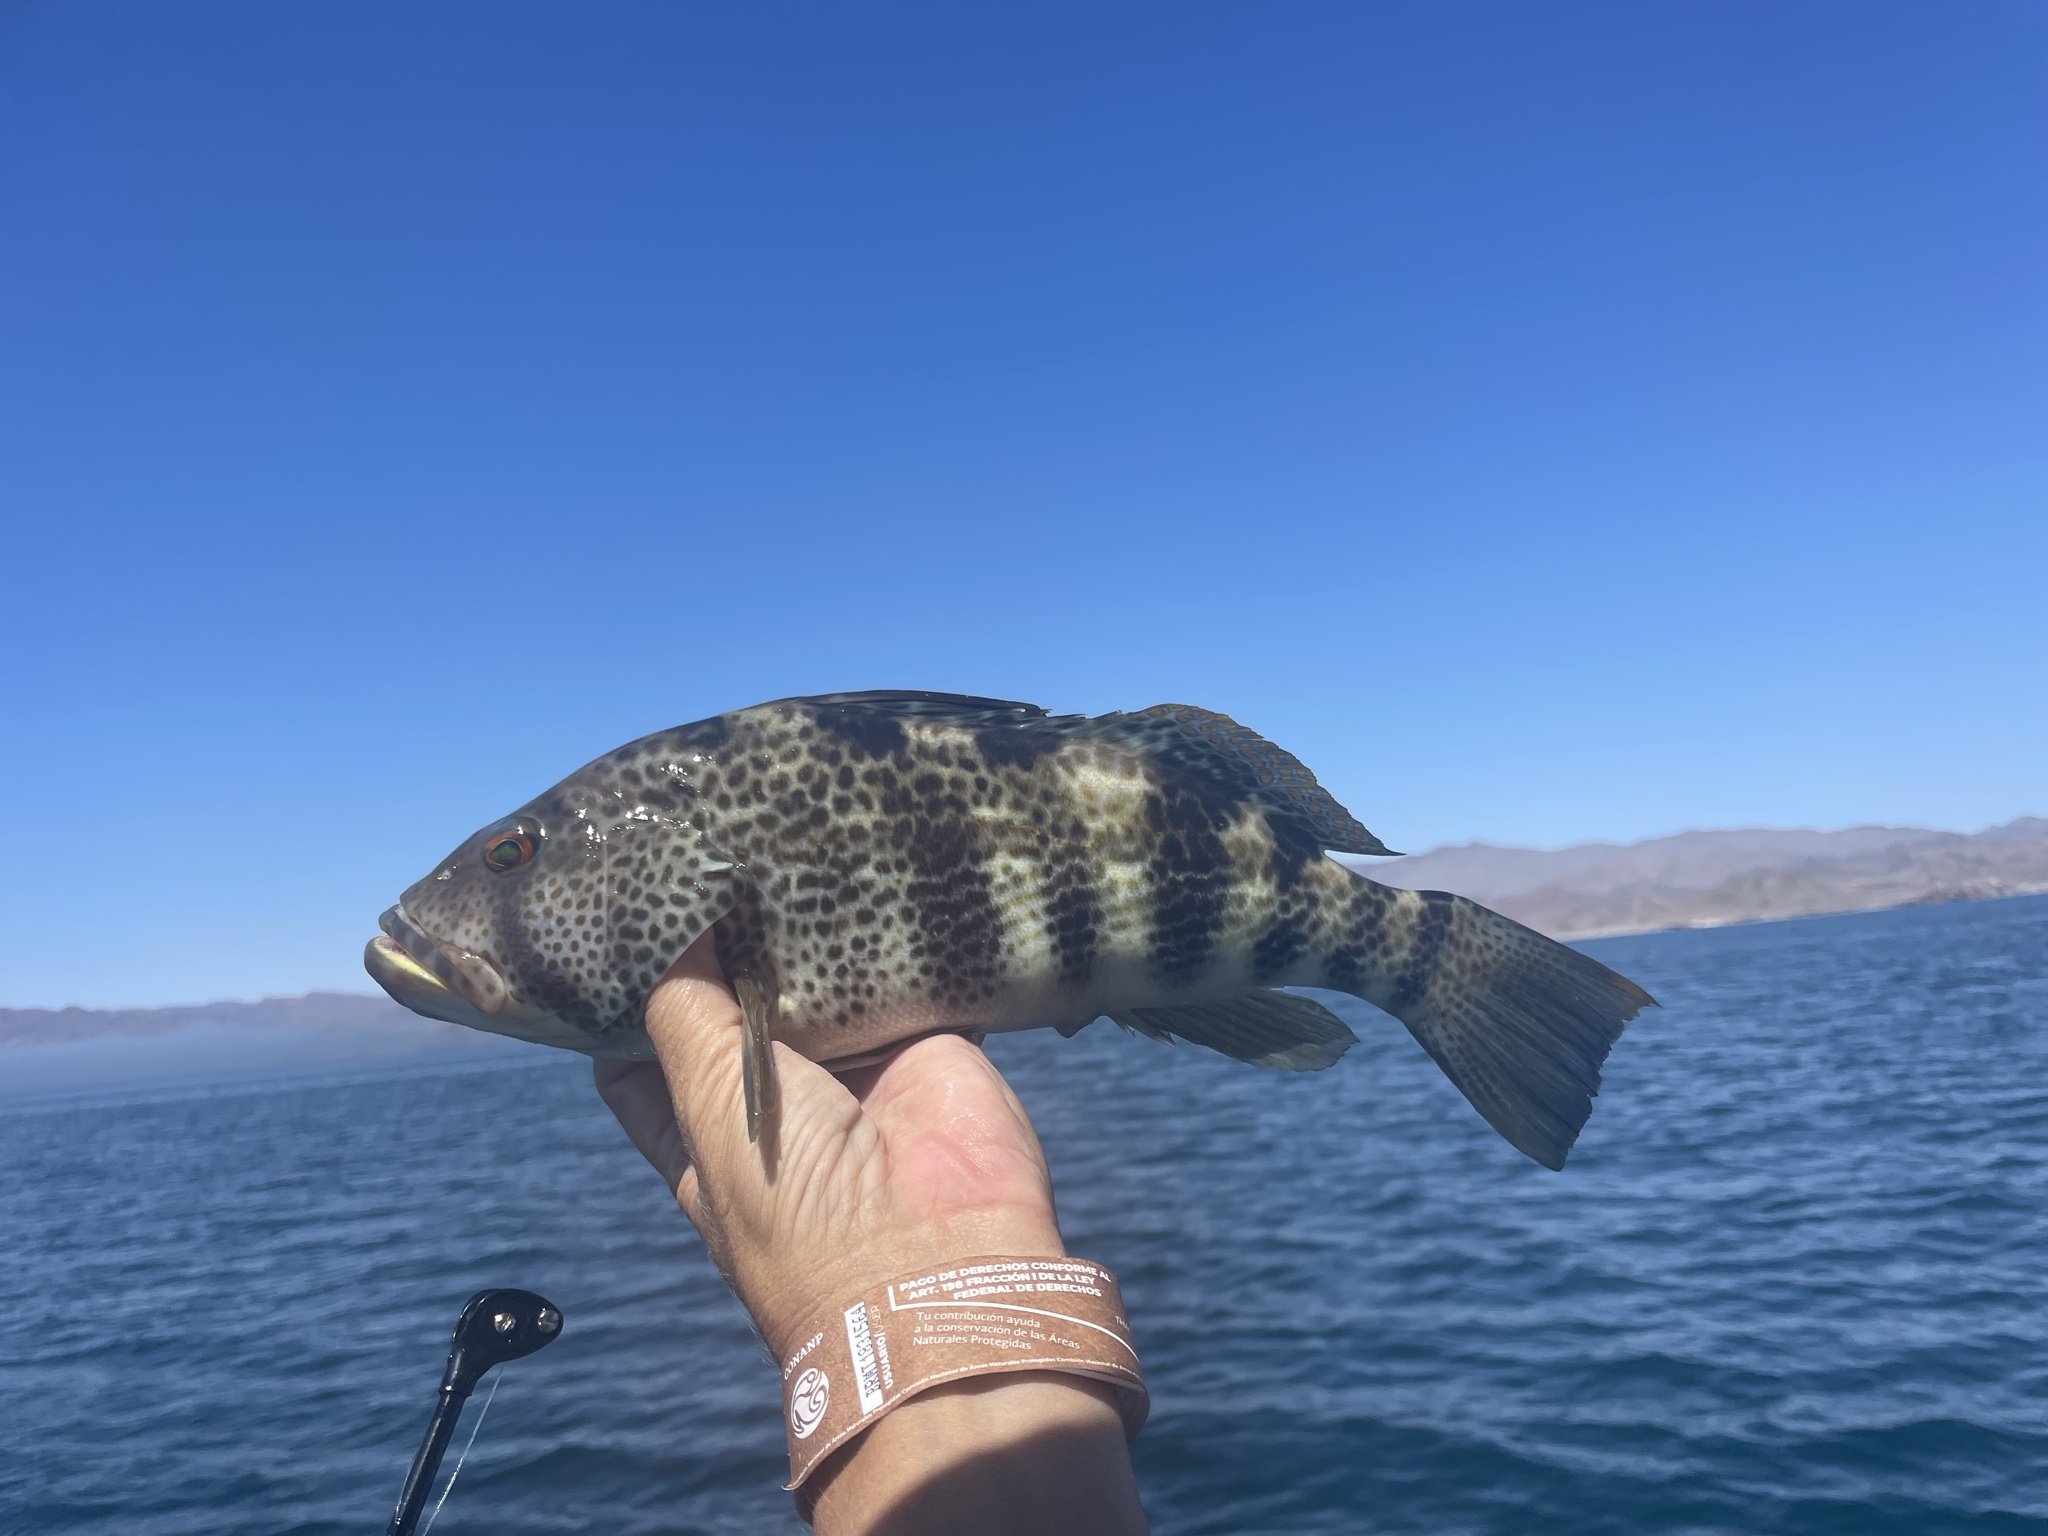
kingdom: Animalia
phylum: Chordata
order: Perciformes
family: Serranidae
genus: Paralabrax
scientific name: Paralabrax maculatofasciatus
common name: Spotted sand bass
